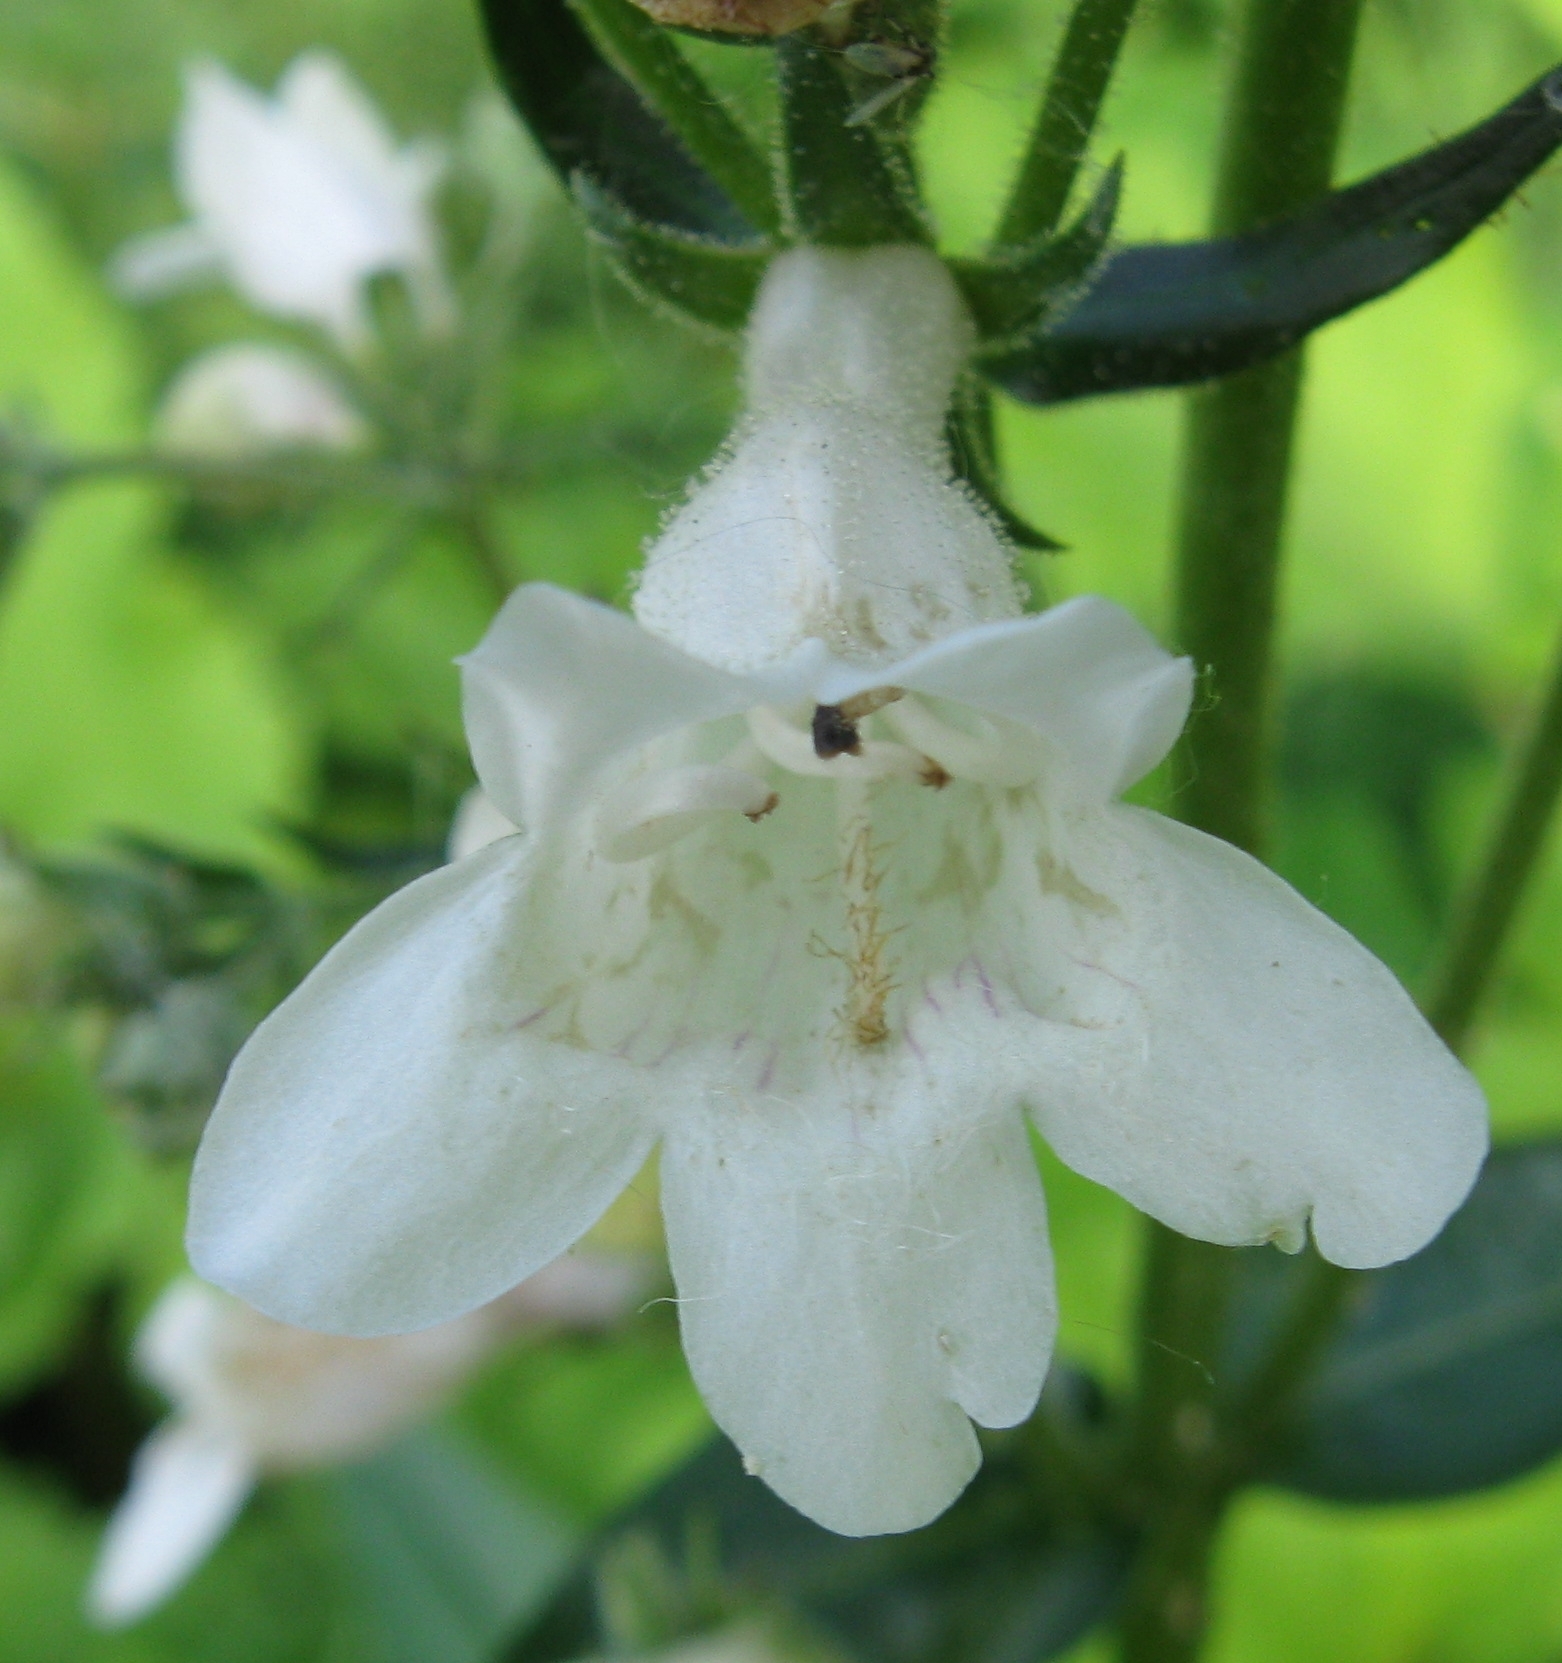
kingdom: Plantae
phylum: Tracheophyta
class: Magnoliopsida
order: Lamiales
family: Plantaginaceae
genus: Penstemon
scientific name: Penstemon digitalis
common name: Foxglove beardtongue
